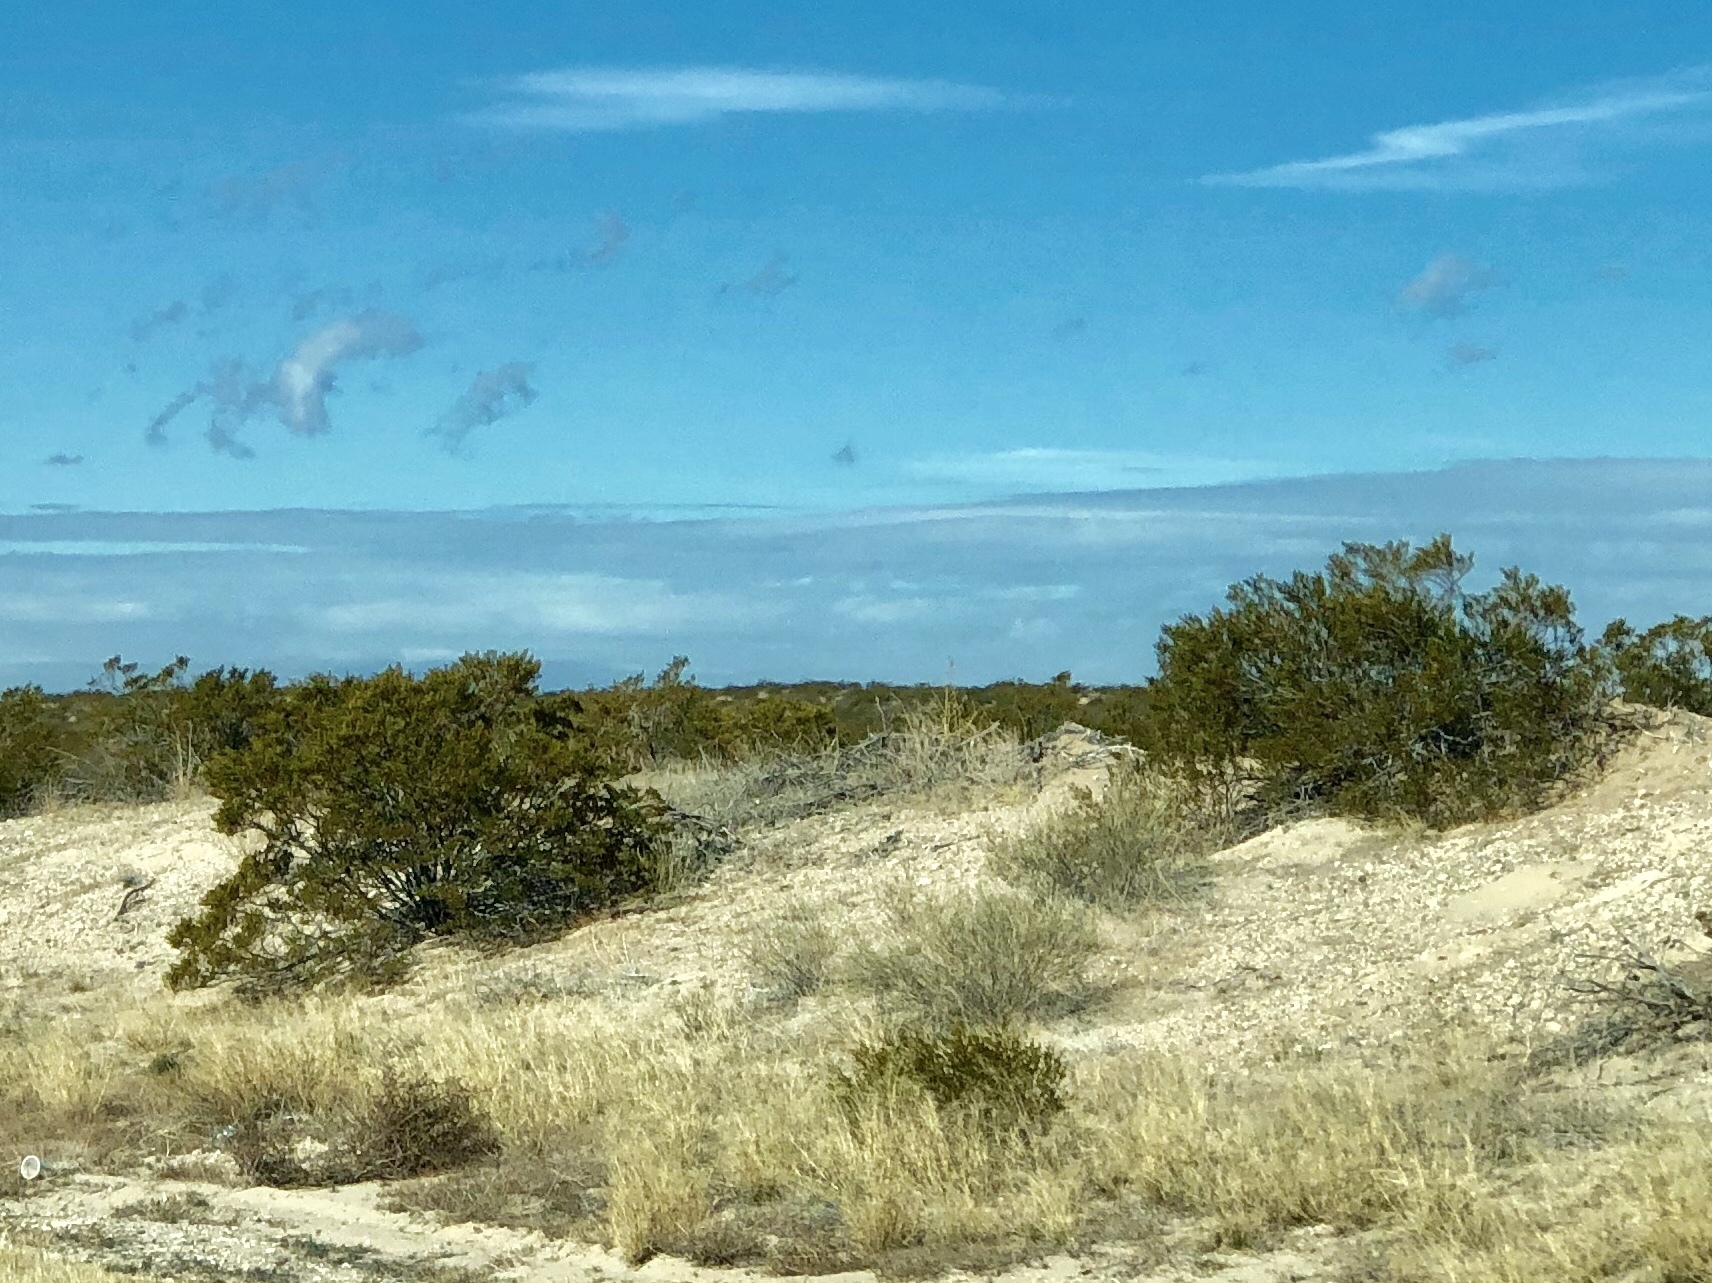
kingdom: Plantae
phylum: Tracheophyta
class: Magnoliopsida
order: Zygophyllales
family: Zygophyllaceae
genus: Larrea
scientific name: Larrea tridentata
